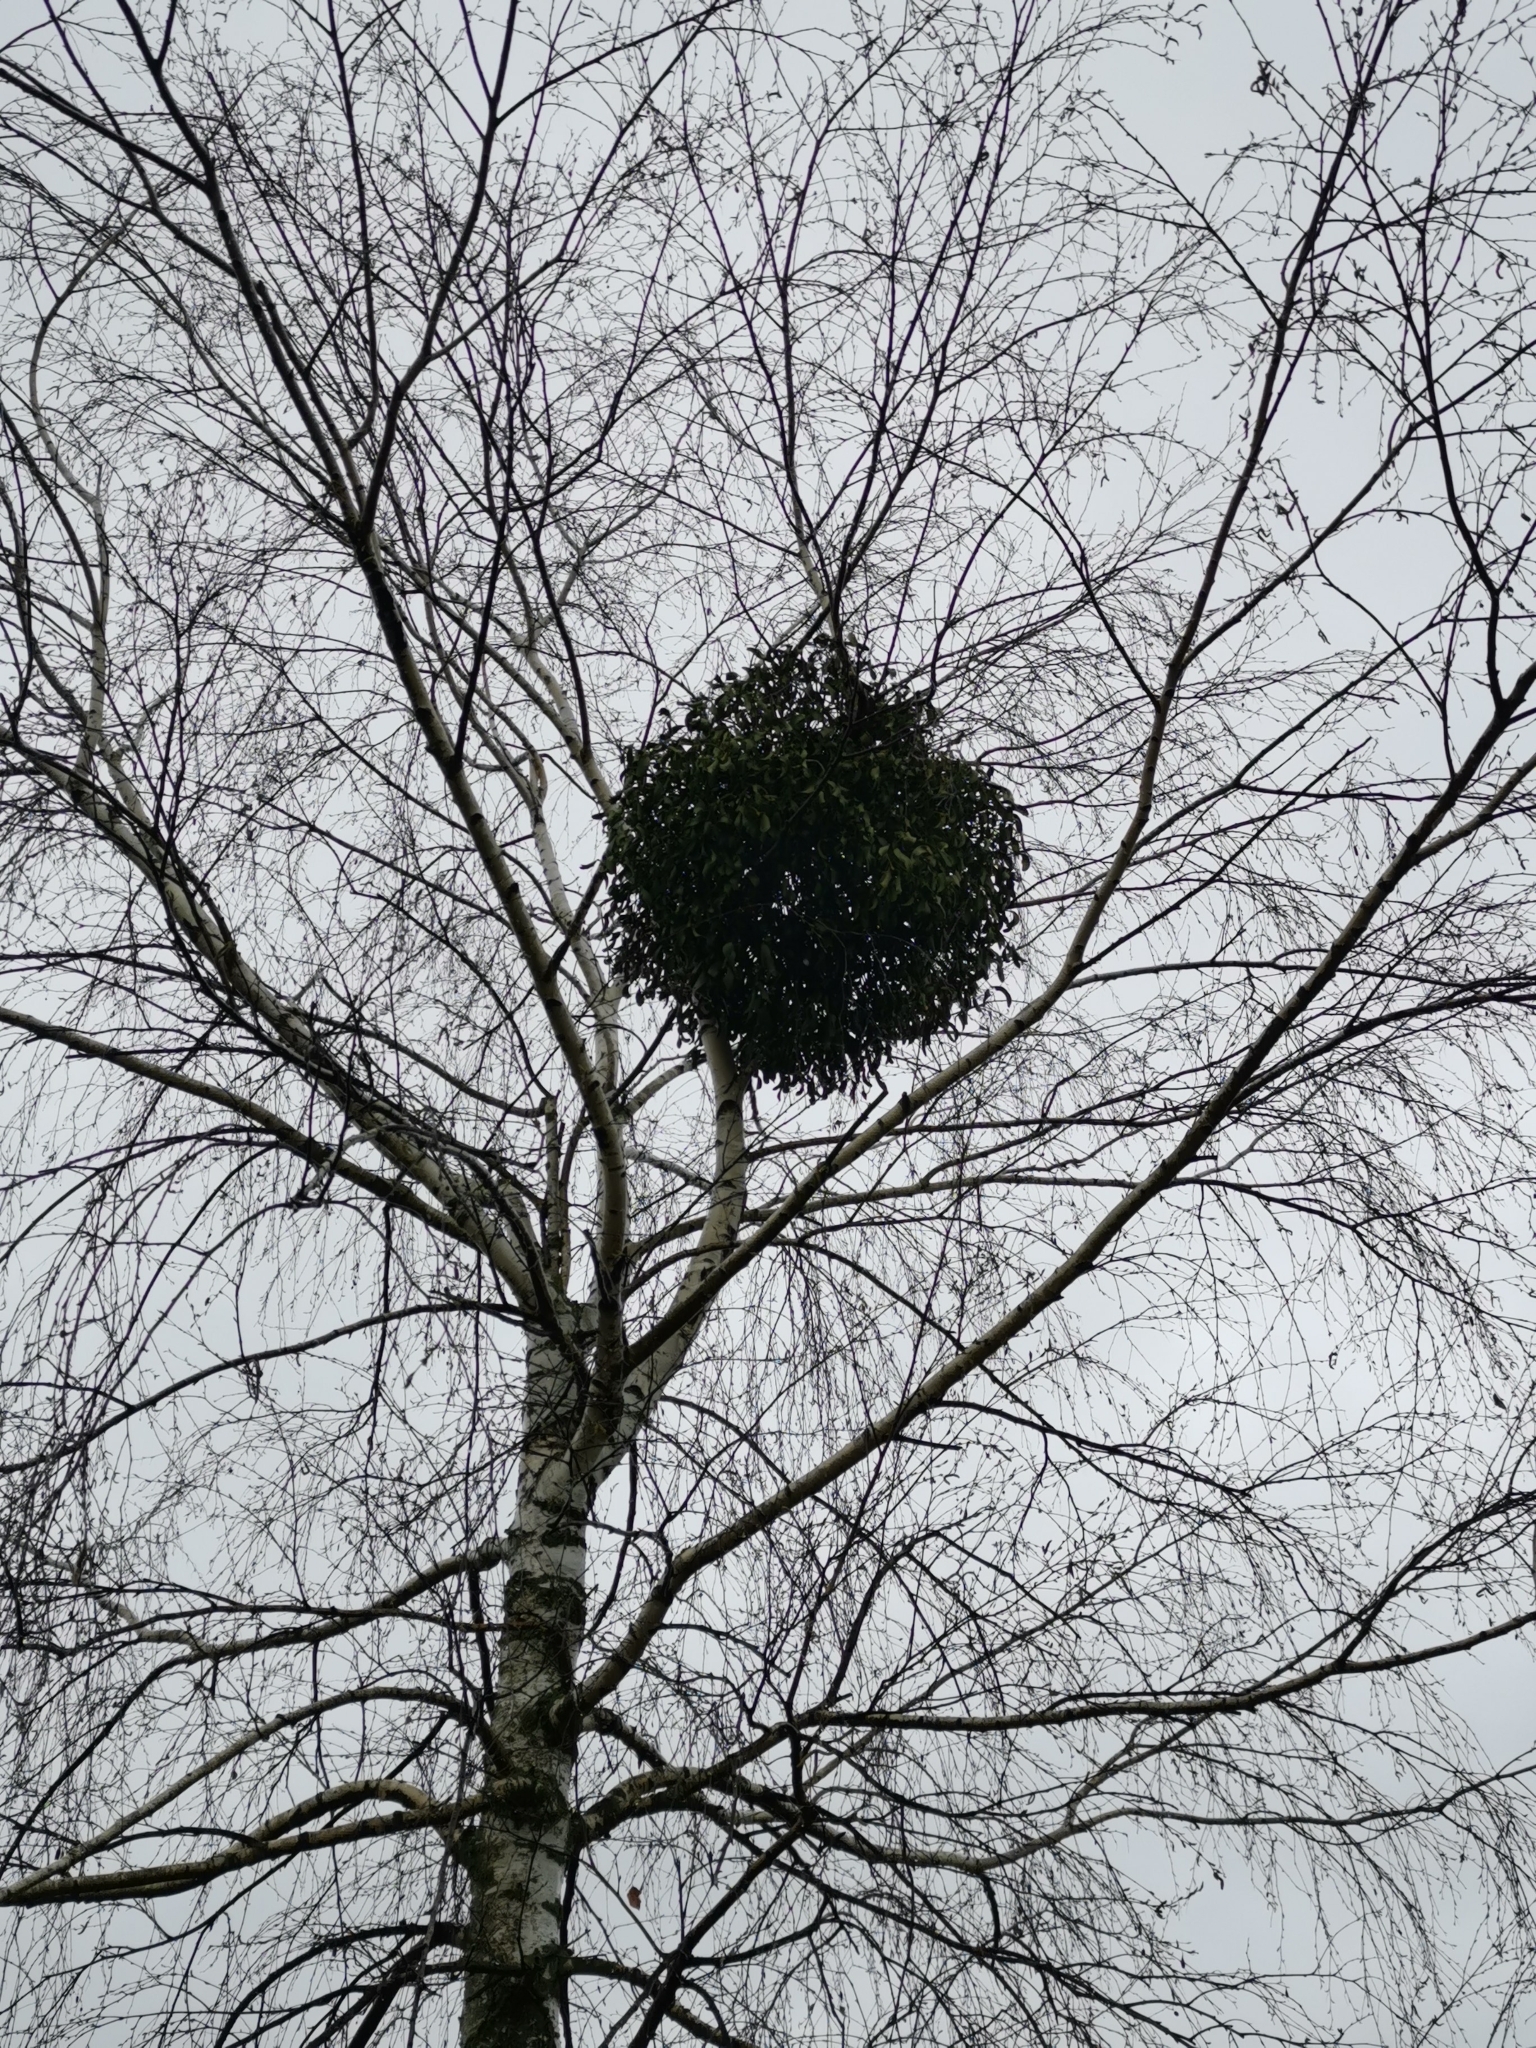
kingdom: Plantae
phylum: Tracheophyta
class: Magnoliopsida
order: Santalales
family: Viscaceae
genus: Viscum
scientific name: Viscum album
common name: Mistletoe
